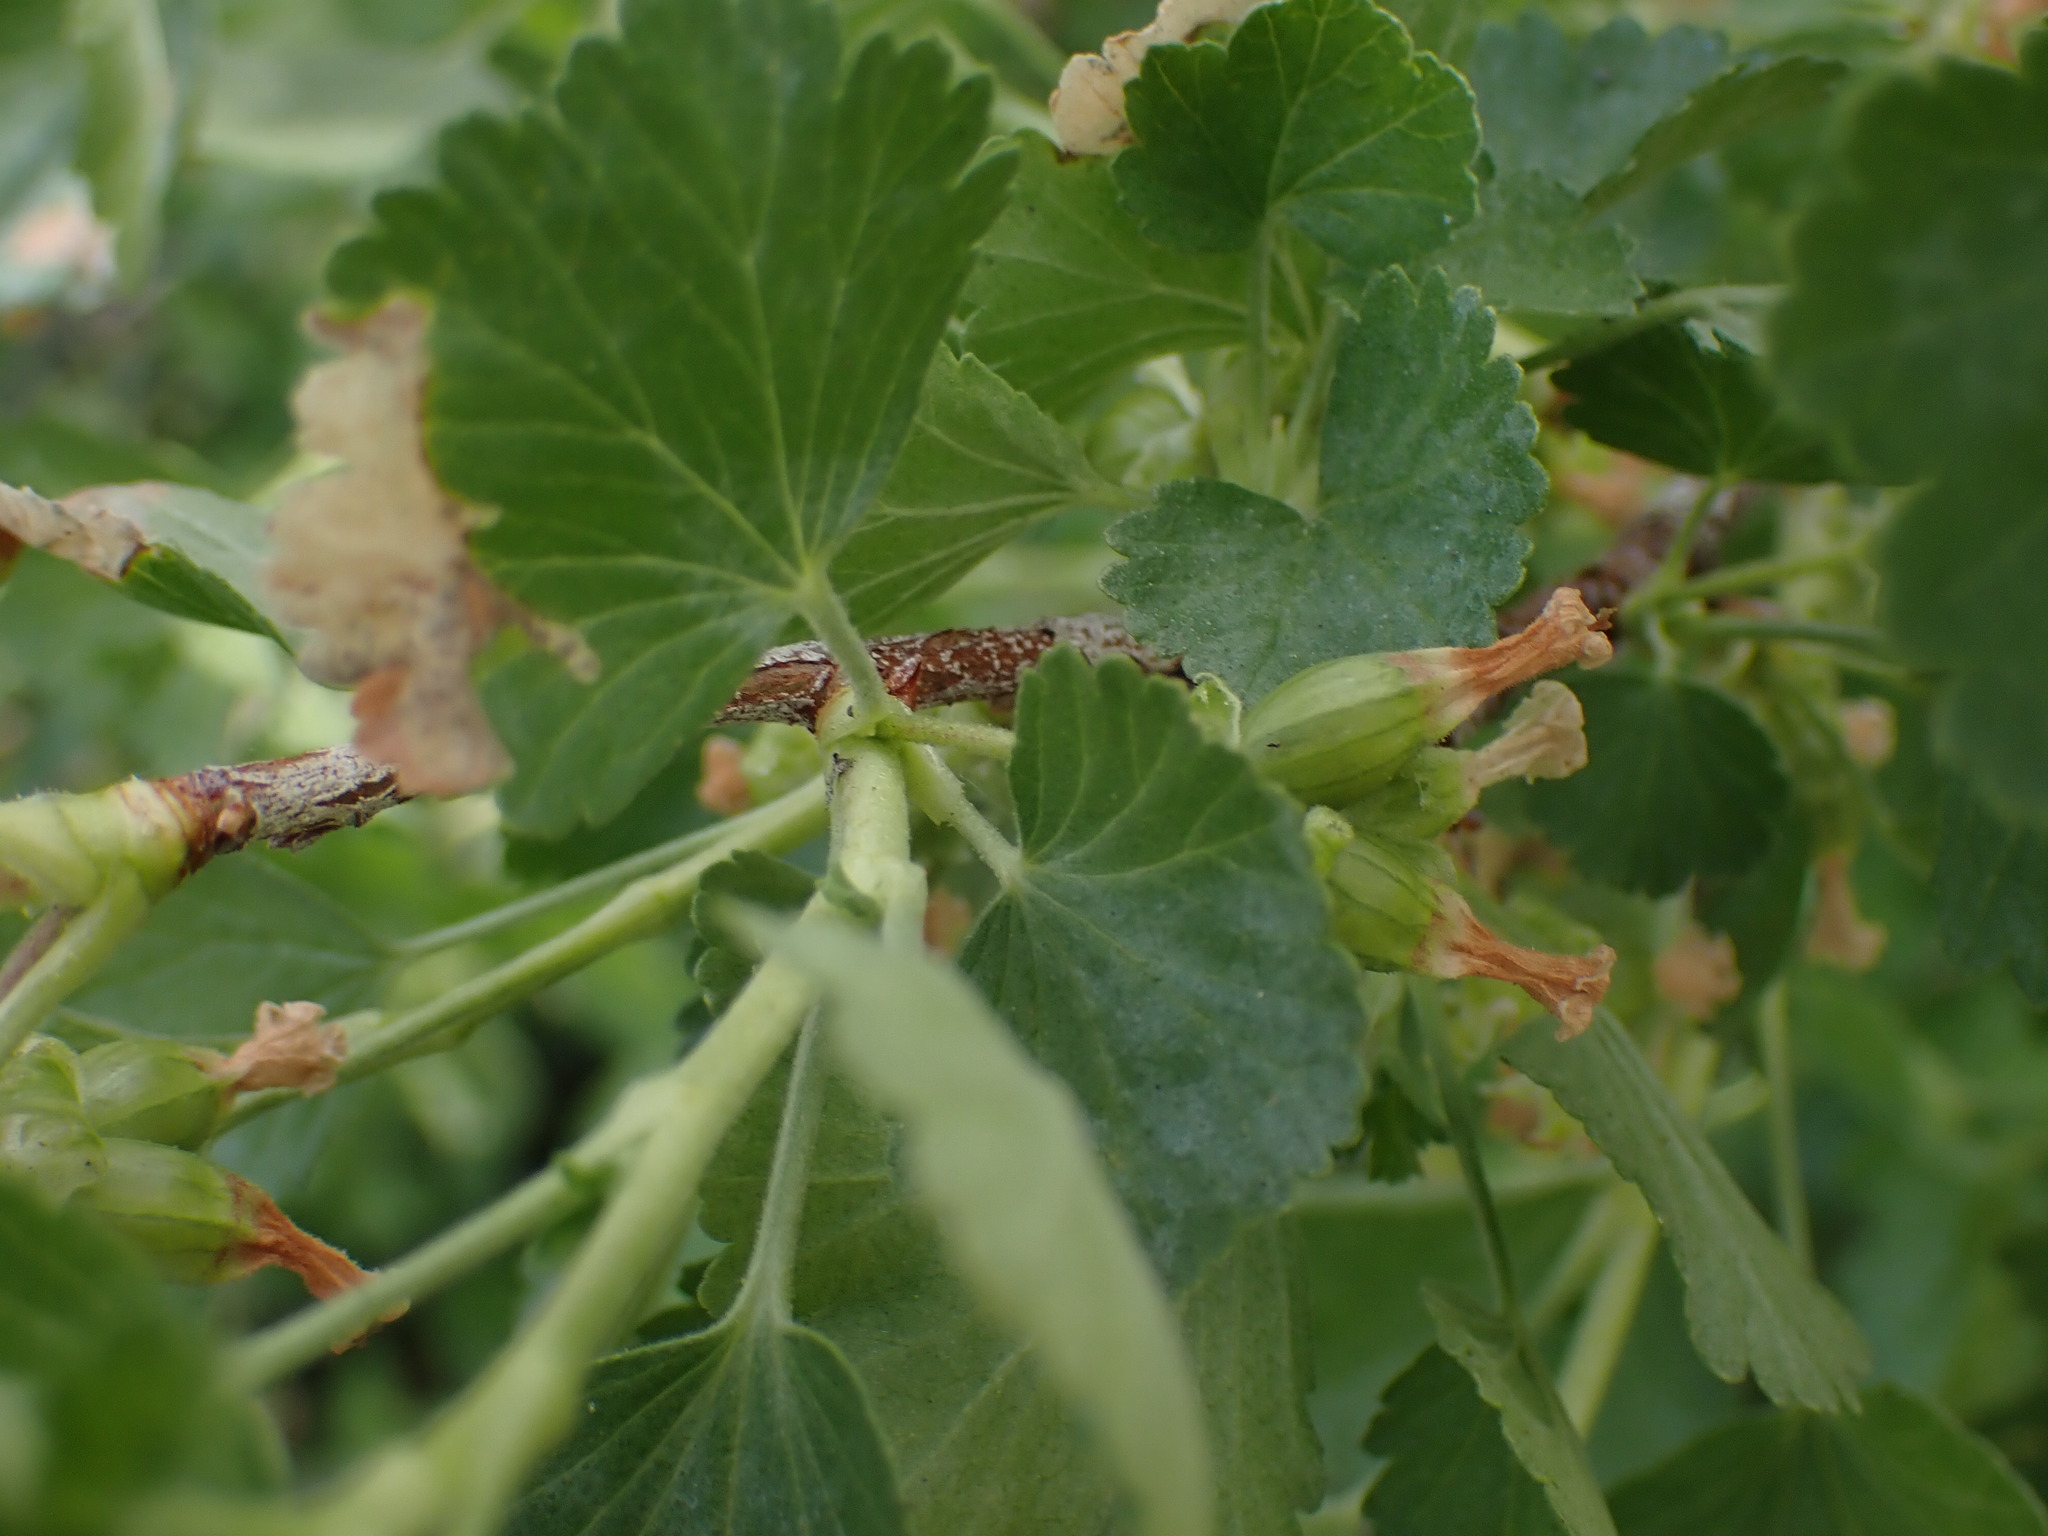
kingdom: Plantae
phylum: Tracheophyta
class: Magnoliopsida
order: Saxifragales
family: Grossulariaceae
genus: Ribes
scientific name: Ribes cereum
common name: Wax currant
